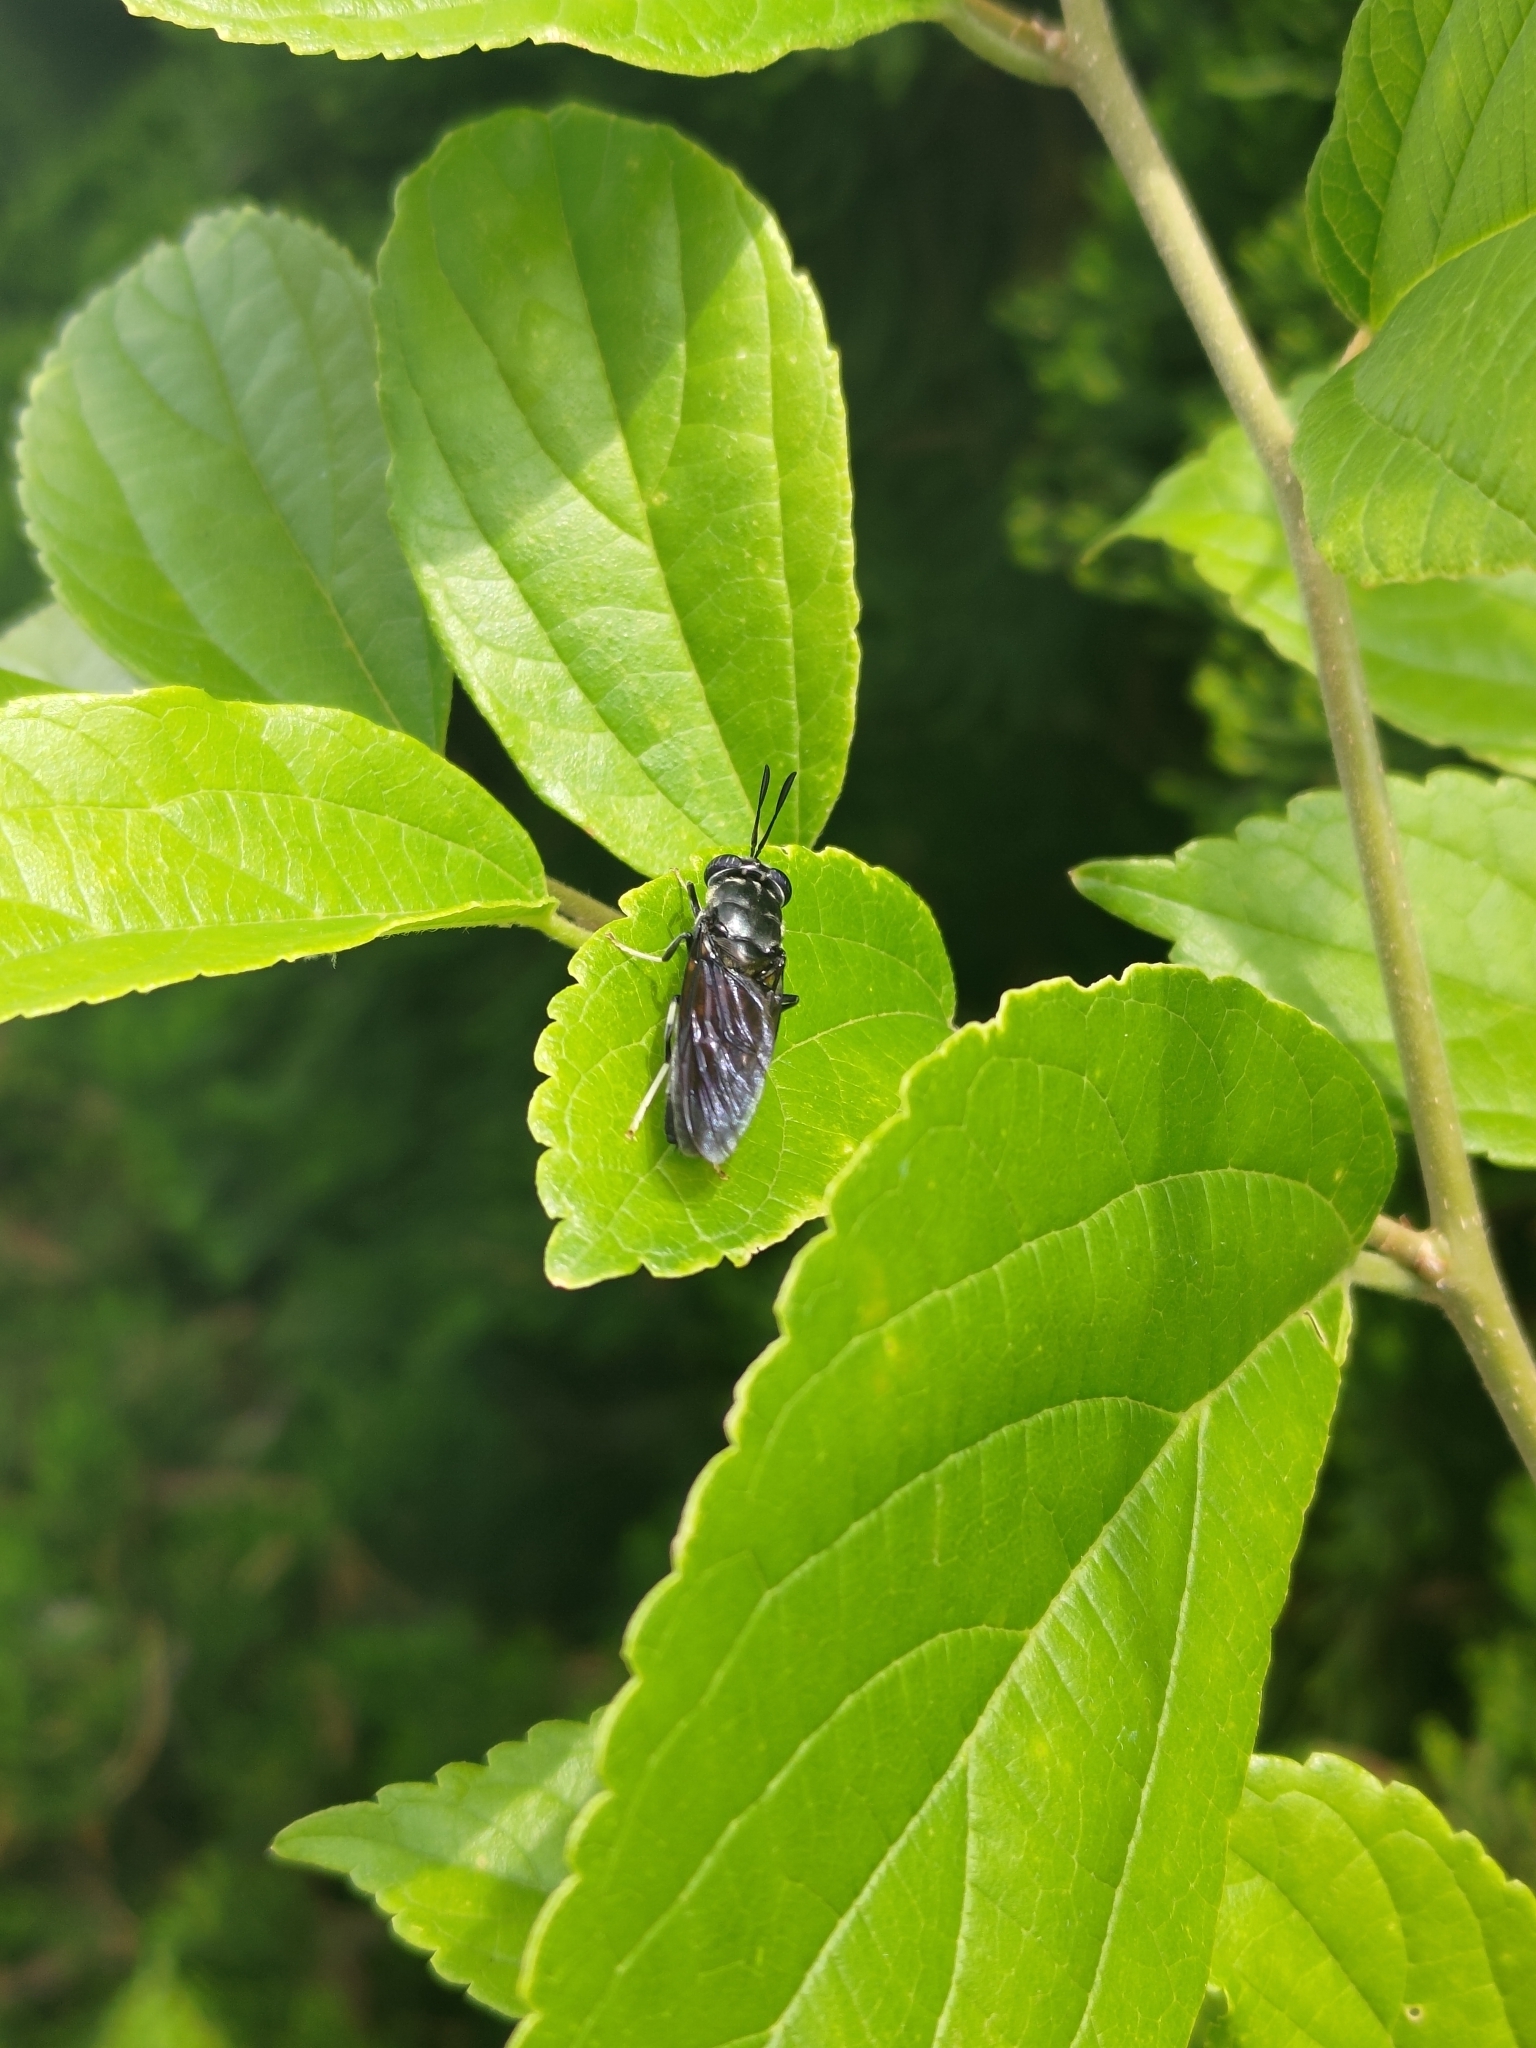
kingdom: Animalia
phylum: Arthropoda
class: Insecta
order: Diptera
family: Stratiomyidae
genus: Hermetia
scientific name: Hermetia illucens
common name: Black soldier fly
